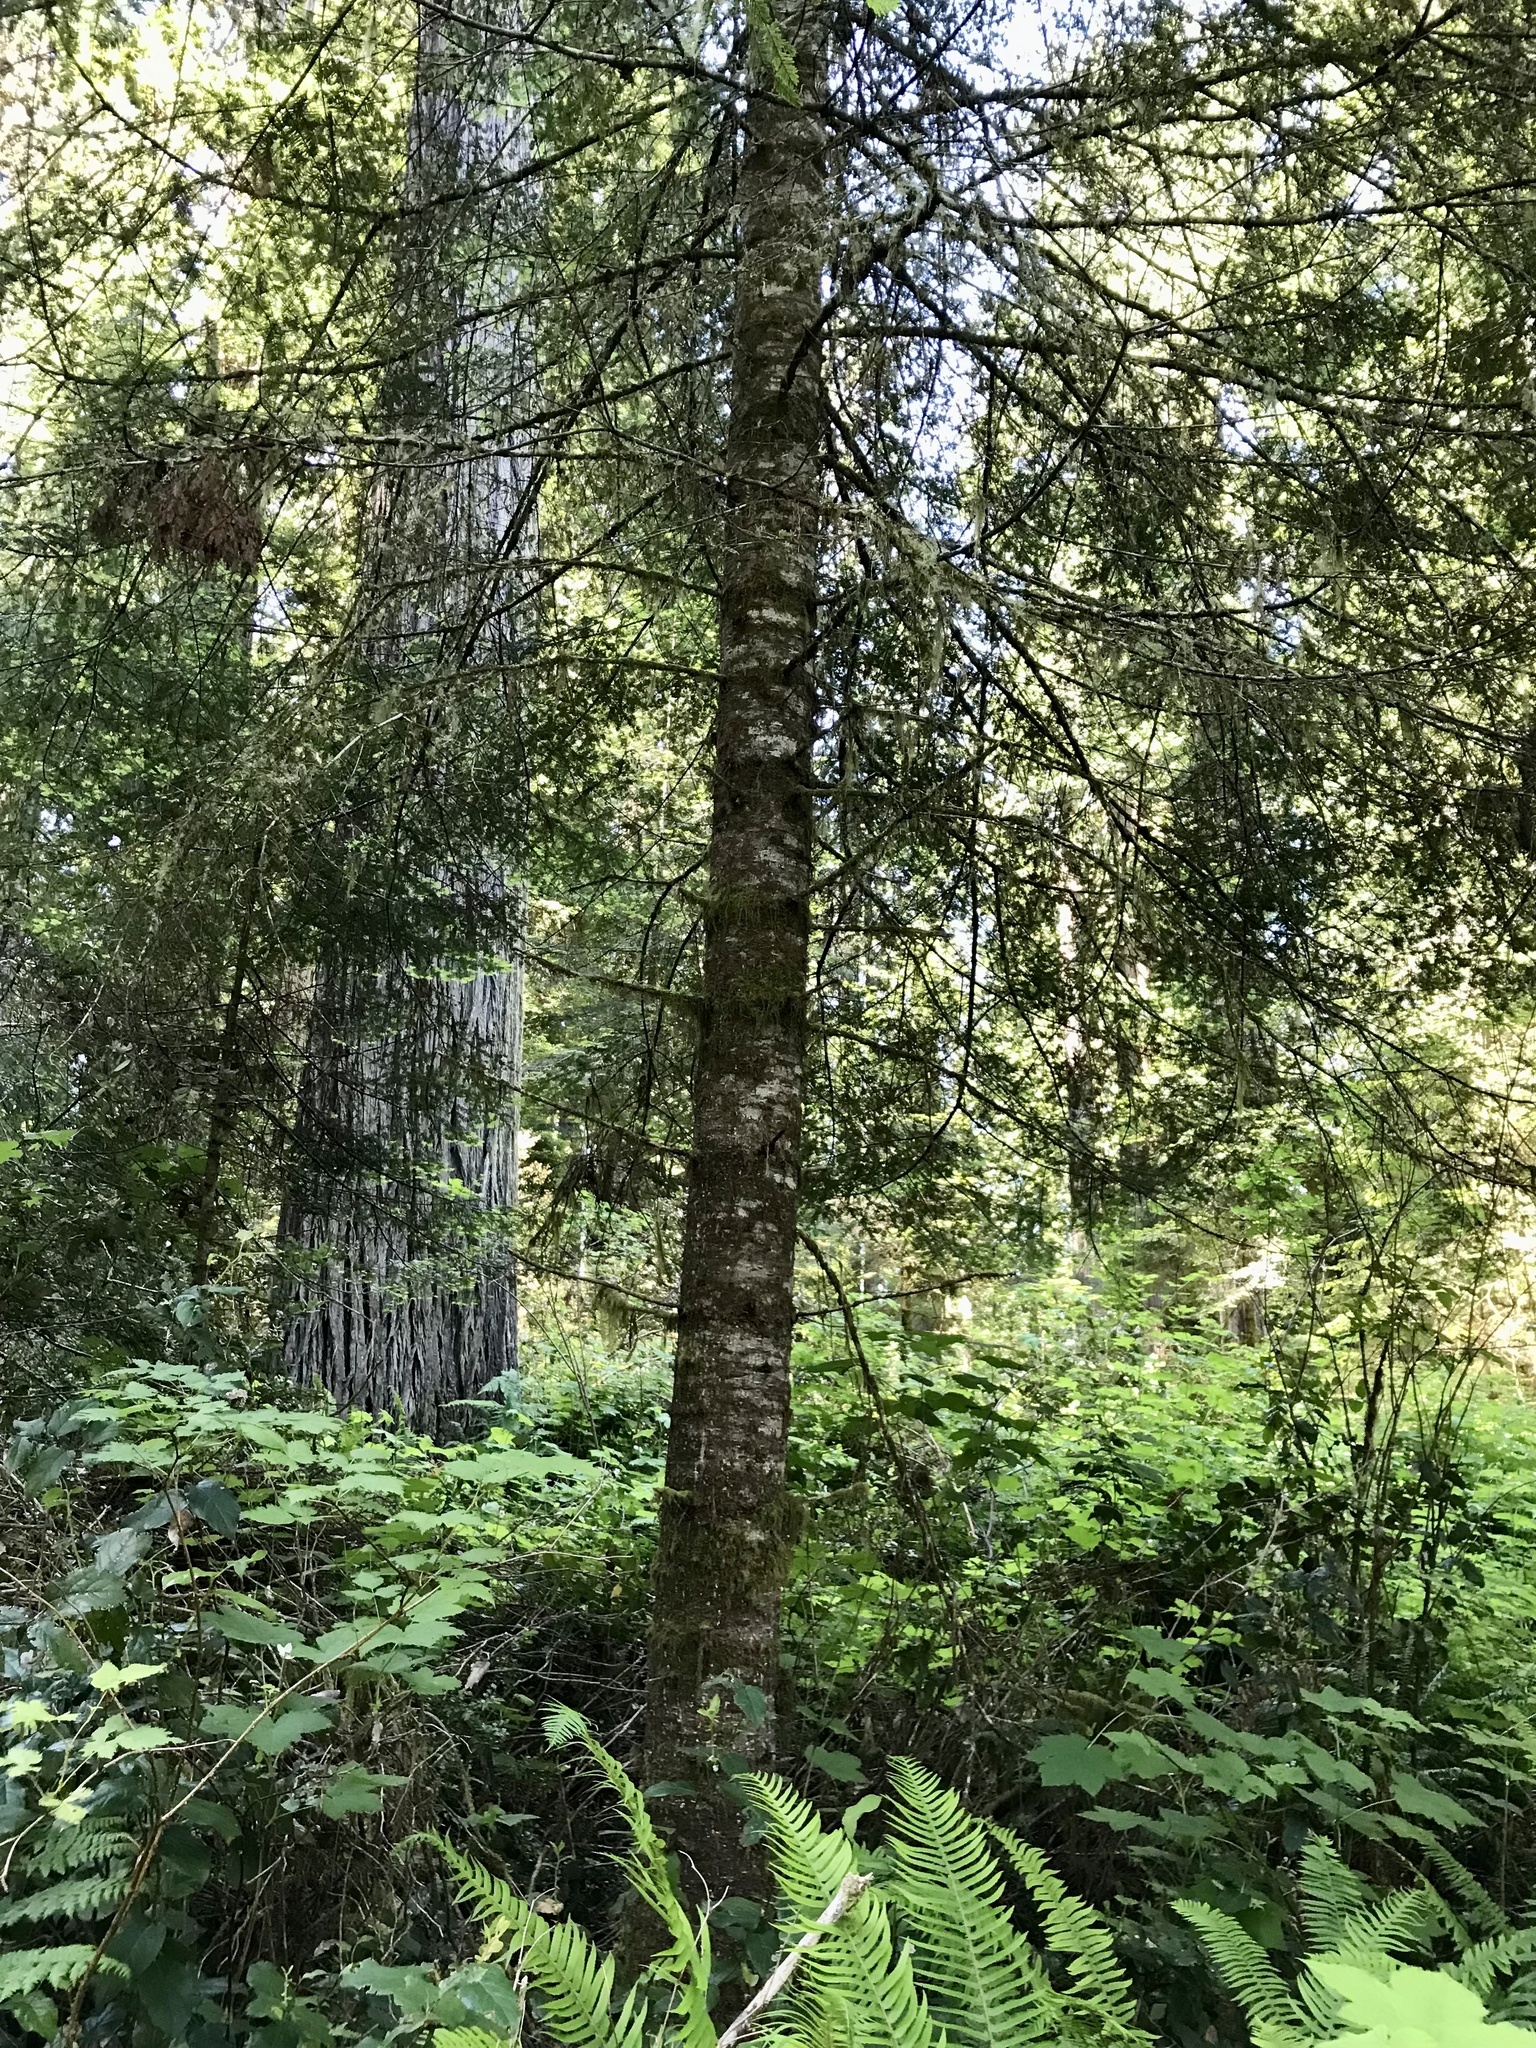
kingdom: Plantae
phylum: Tracheophyta
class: Pinopsida
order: Pinales
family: Pinaceae
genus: Abies
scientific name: Abies grandis
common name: Giant fir
